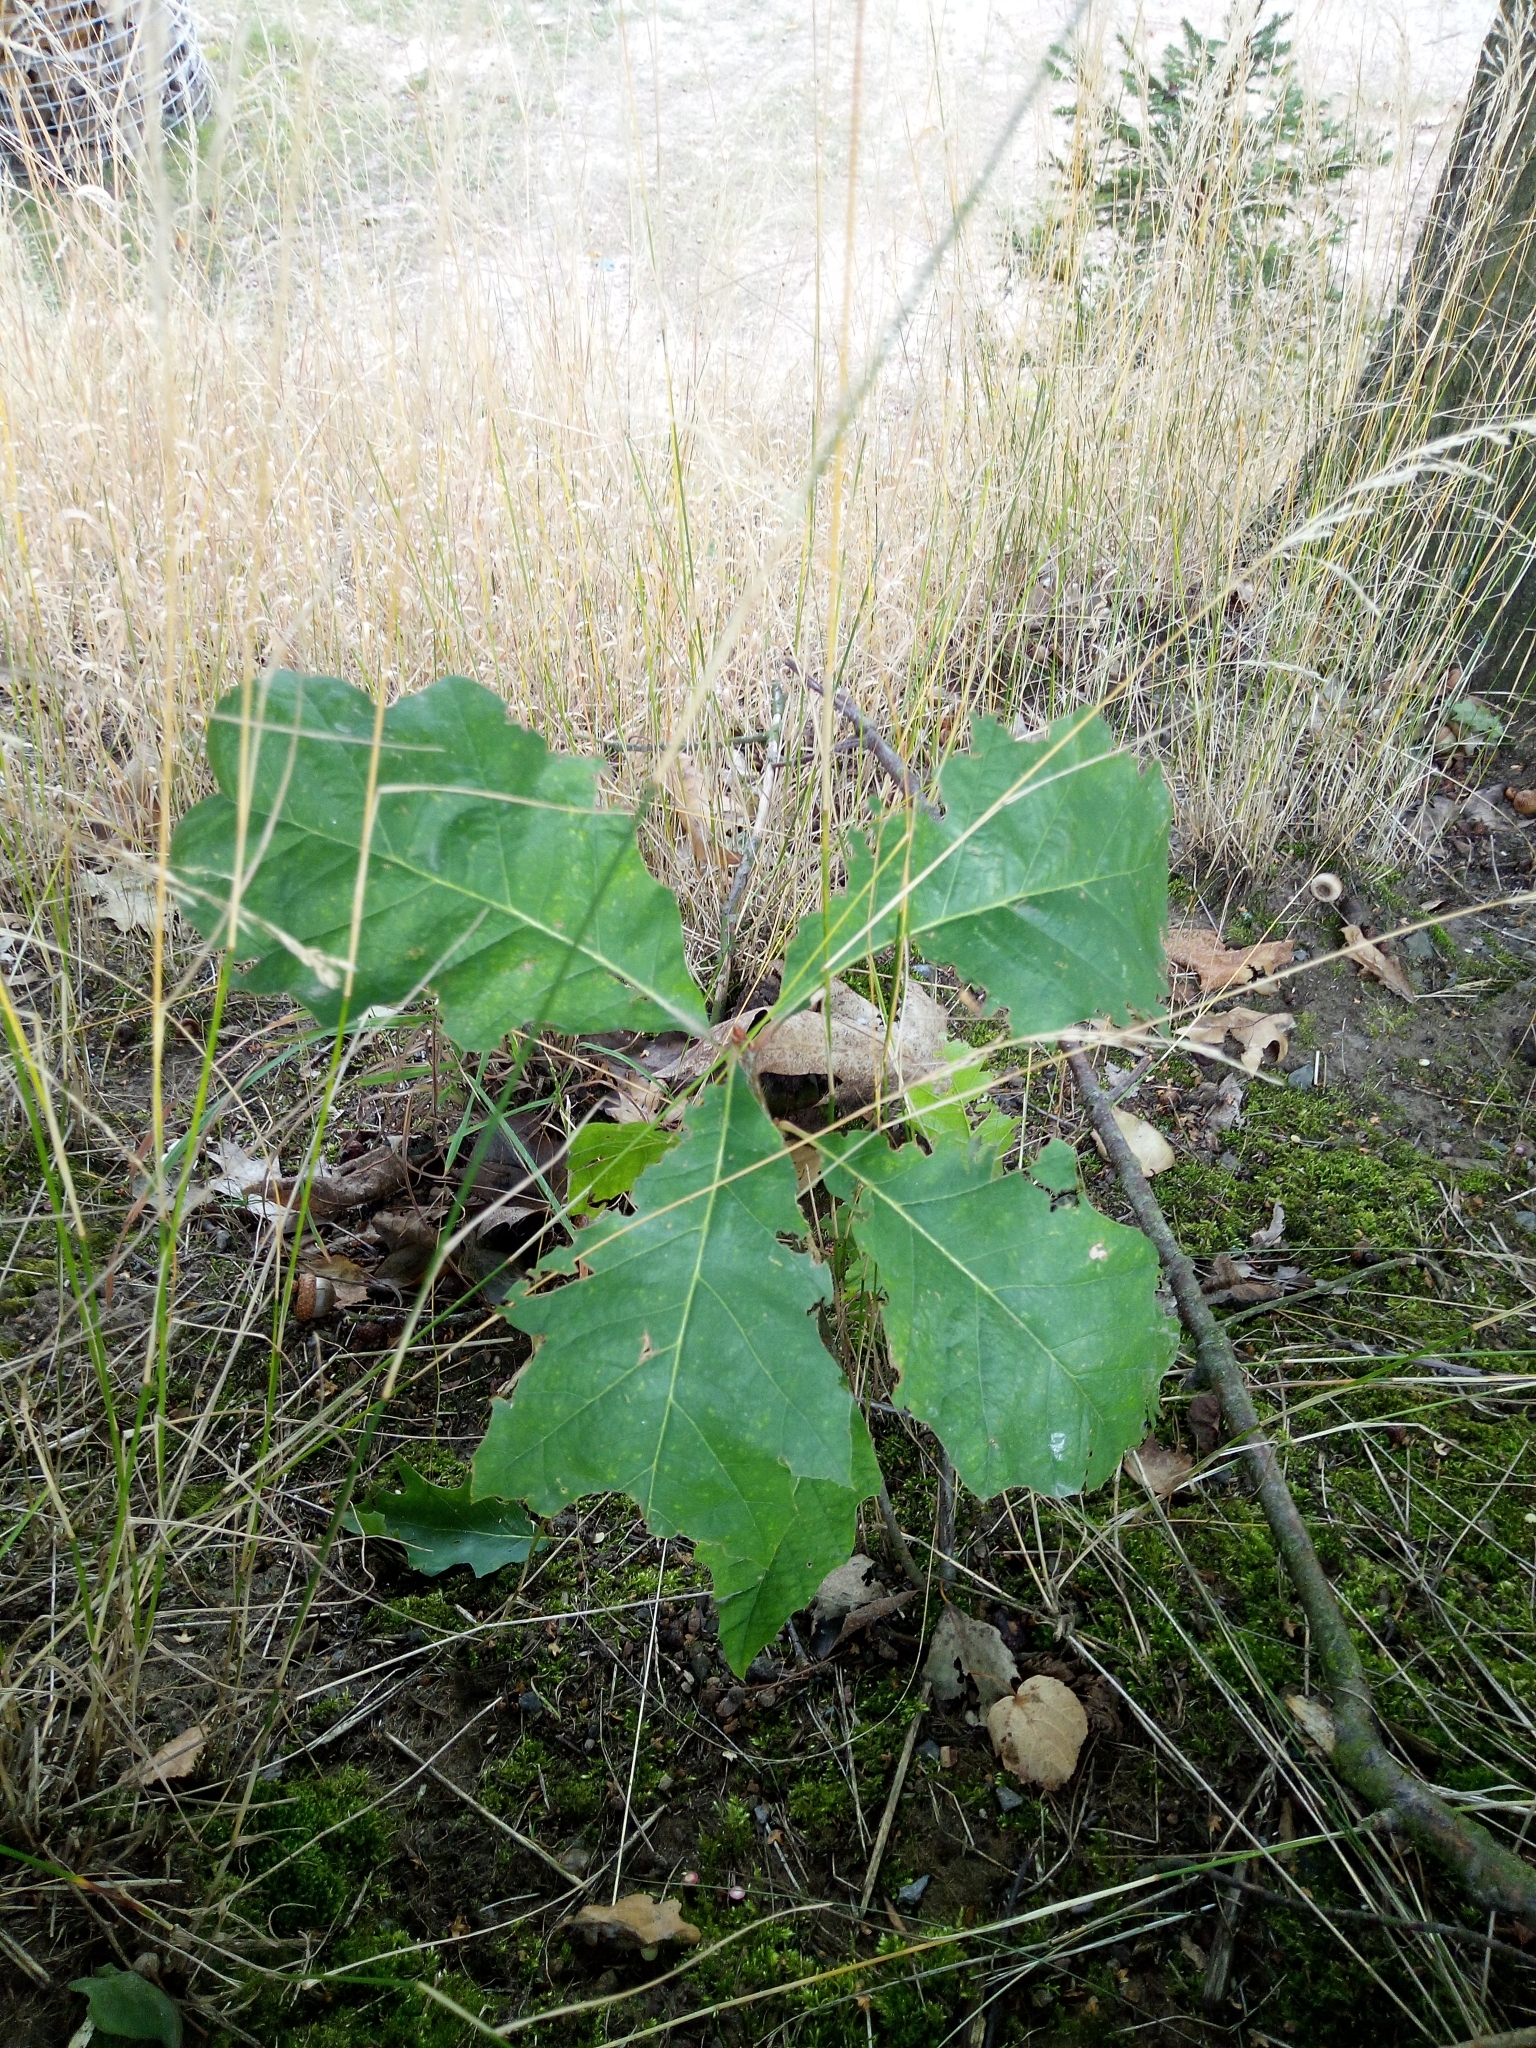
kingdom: Plantae
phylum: Tracheophyta
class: Magnoliopsida
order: Fagales
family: Fagaceae
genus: Quercus
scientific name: Quercus rubra
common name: Red oak
